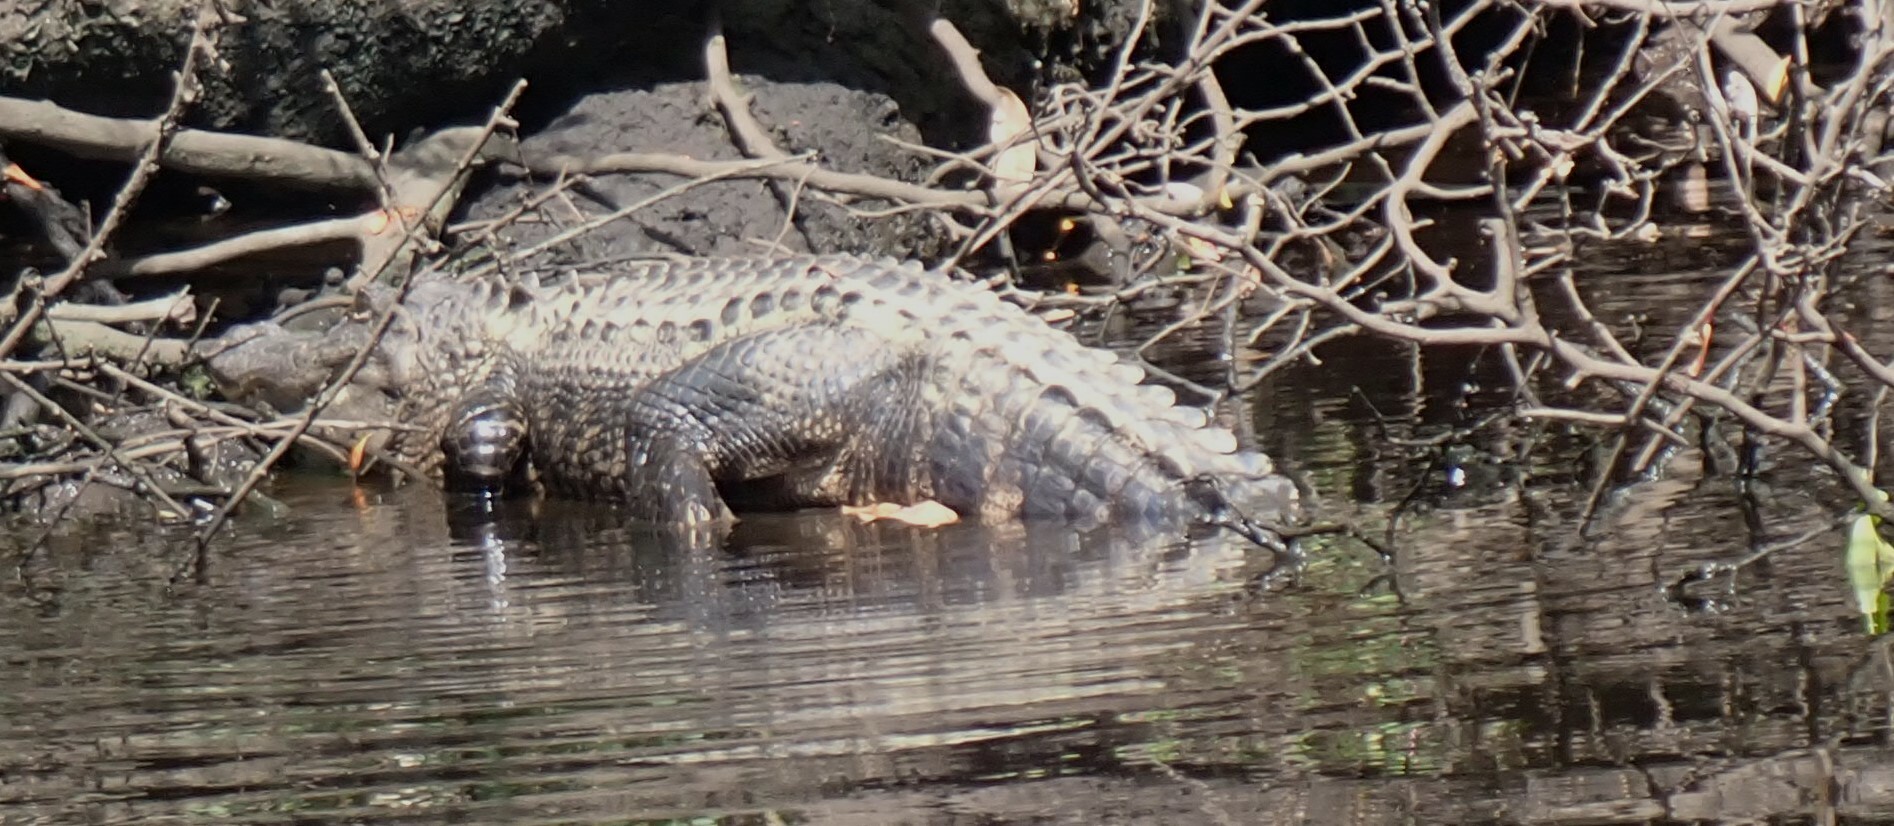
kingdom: Animalia
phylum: Chordata
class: Crocodylia
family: Alligatoridae
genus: Alligator
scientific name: Alligator mississippiensis
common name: American alligator
